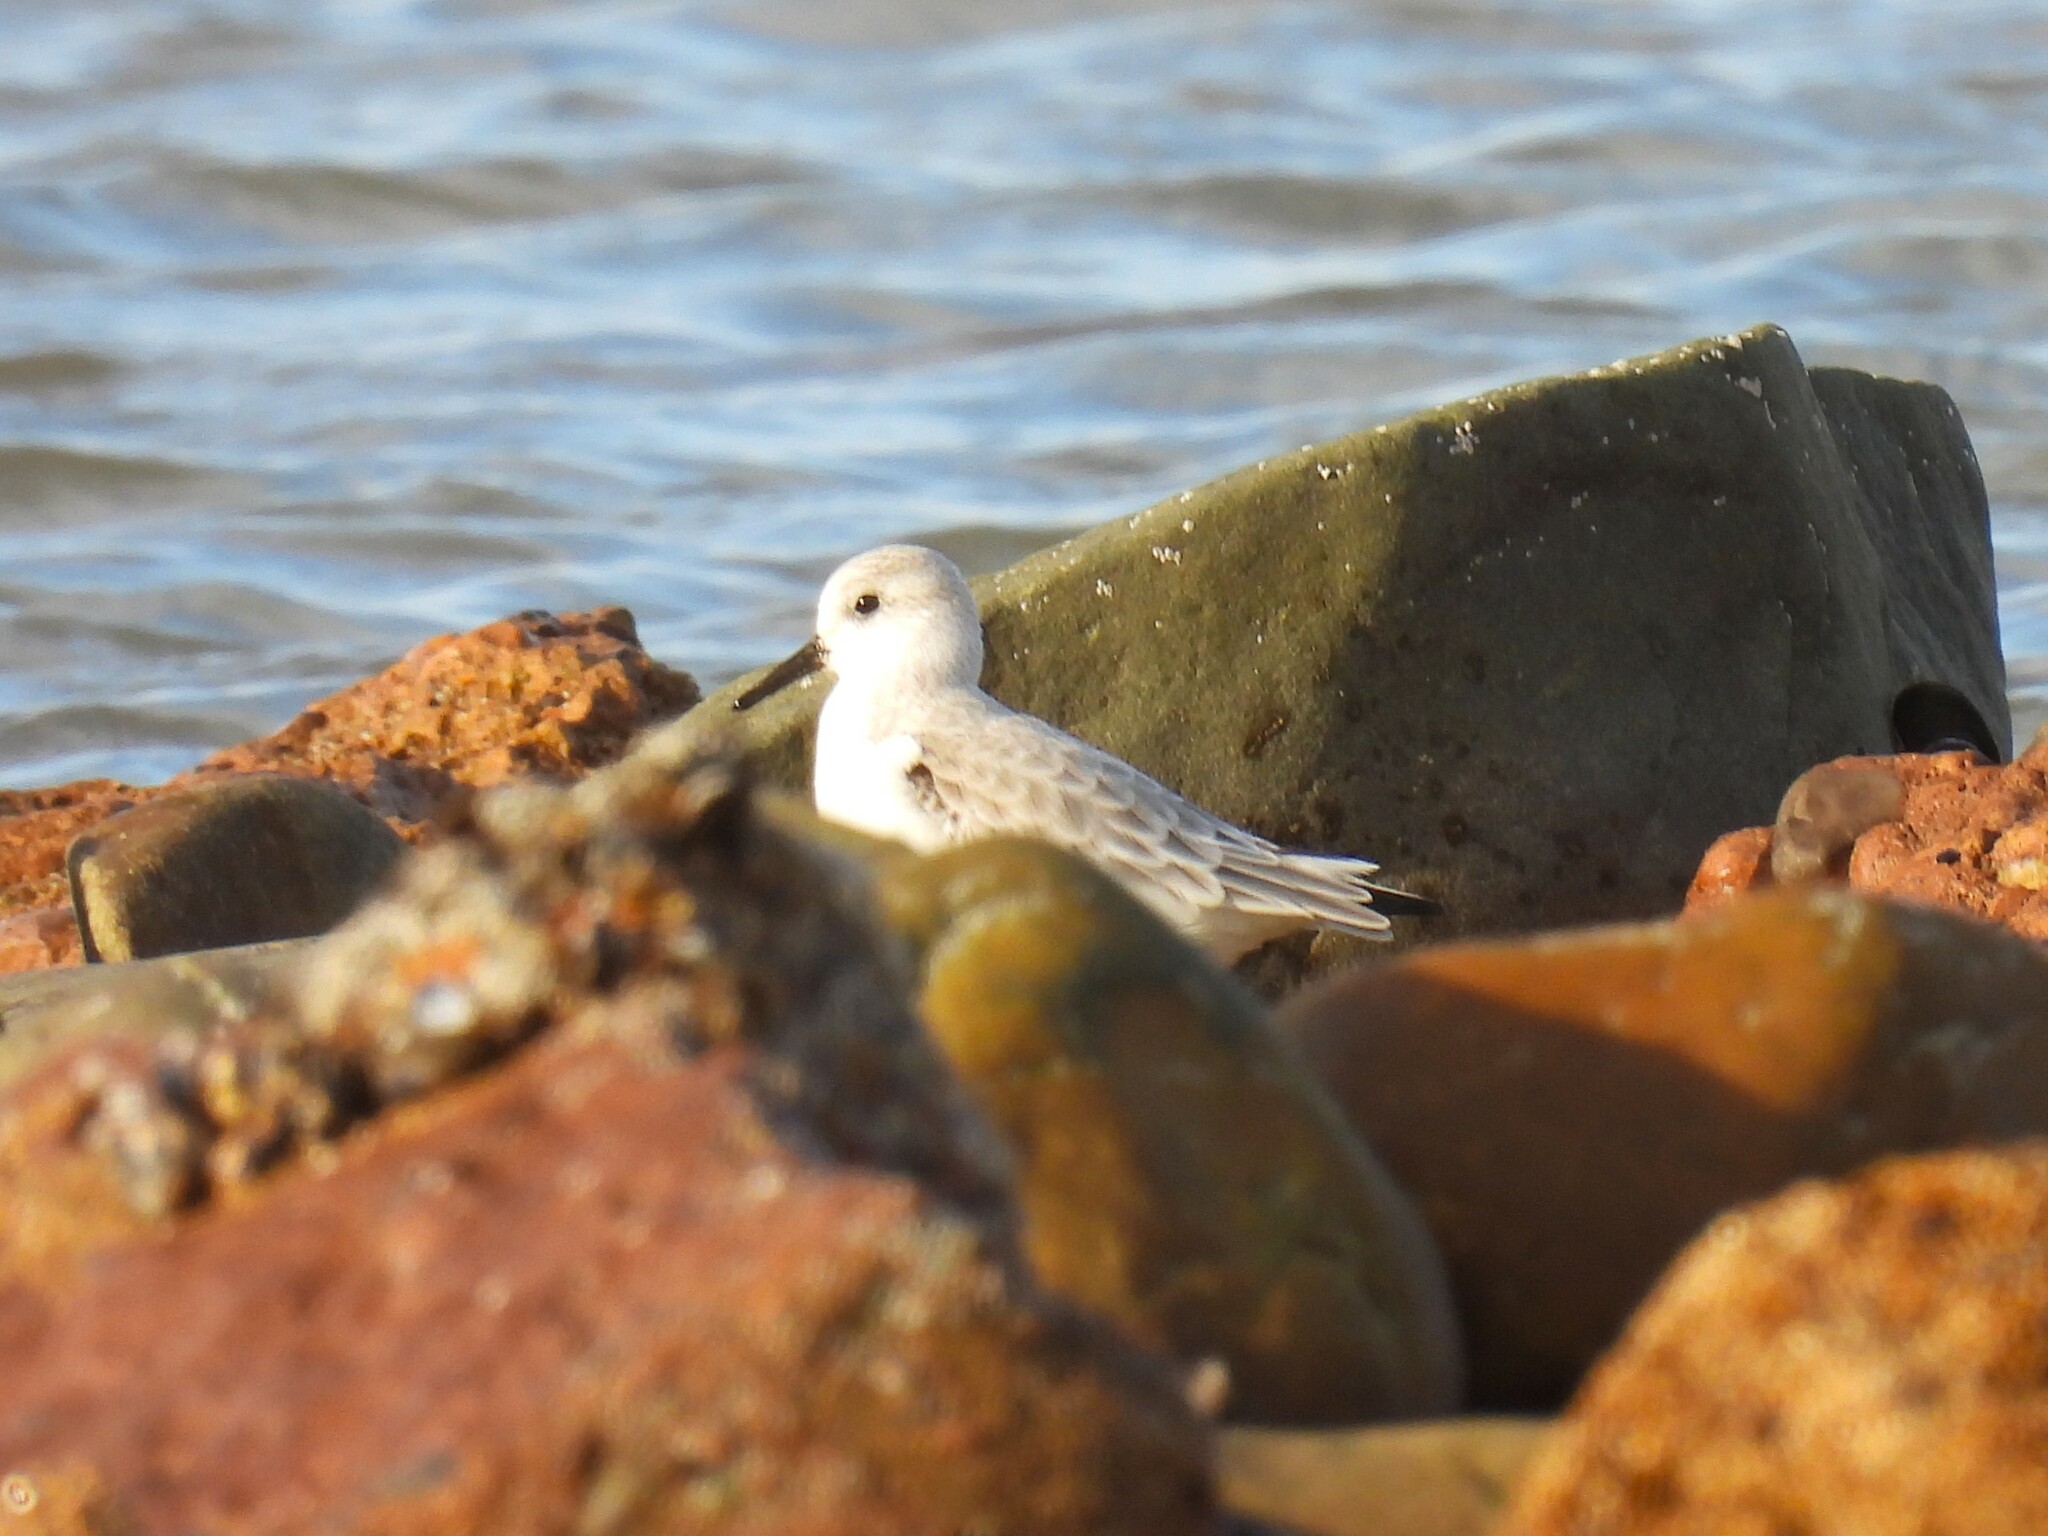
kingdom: Animalia
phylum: Chordata
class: Aves
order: Charadriiformes
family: Scolopacidae
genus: Calidris
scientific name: Calidris alba
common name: Sanderling
